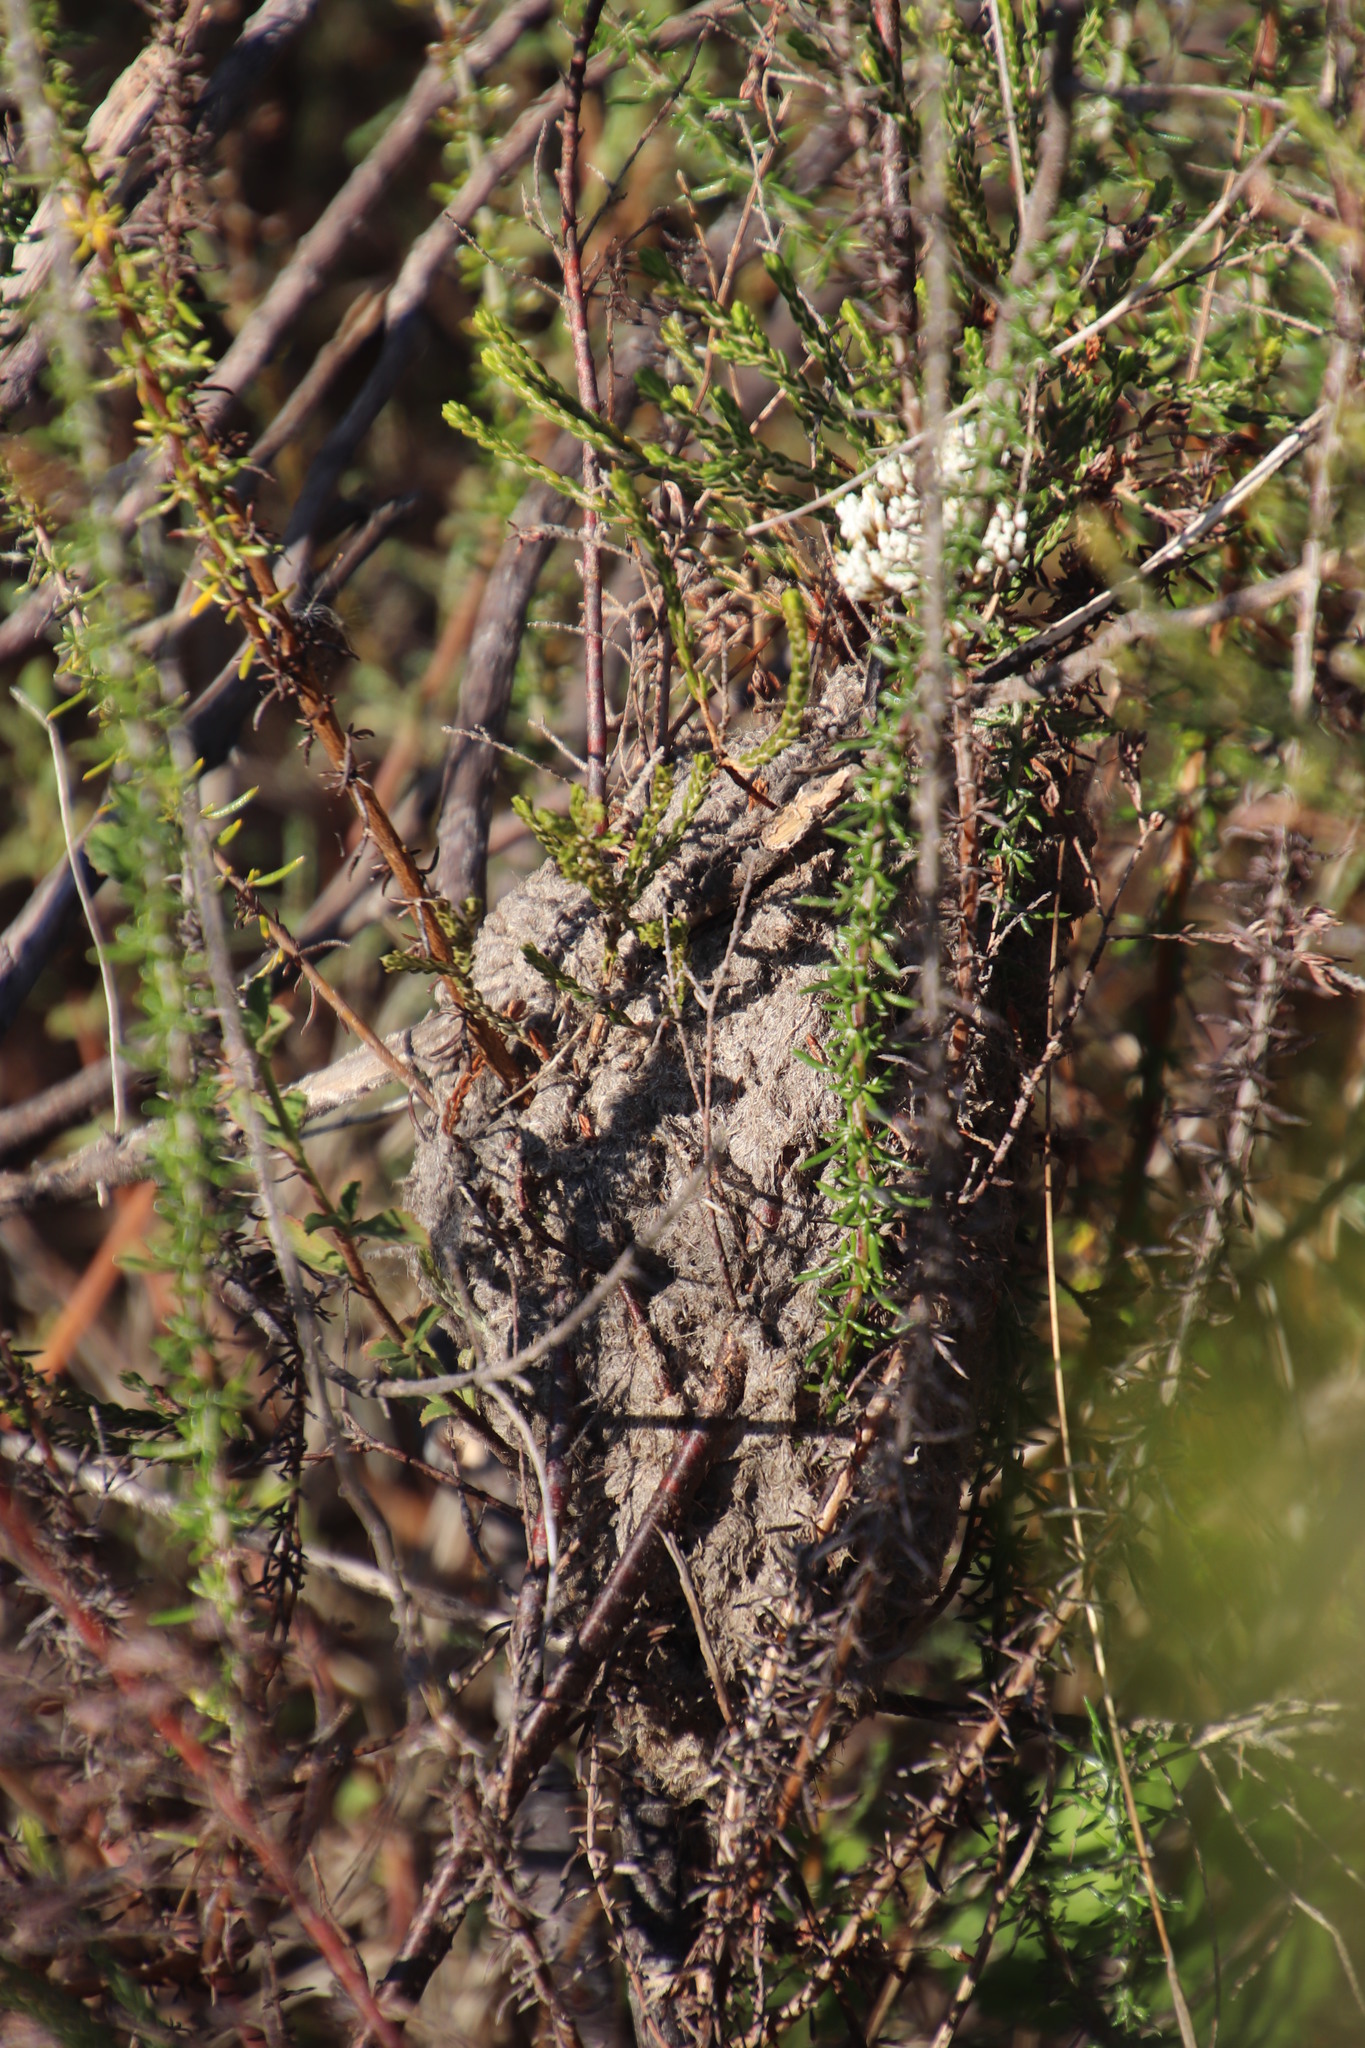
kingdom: Animalia
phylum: Arthropoda
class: Insecta
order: Hymenoptera
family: Formicidae
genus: Crematogaster
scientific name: Crematogaster peringueyi
